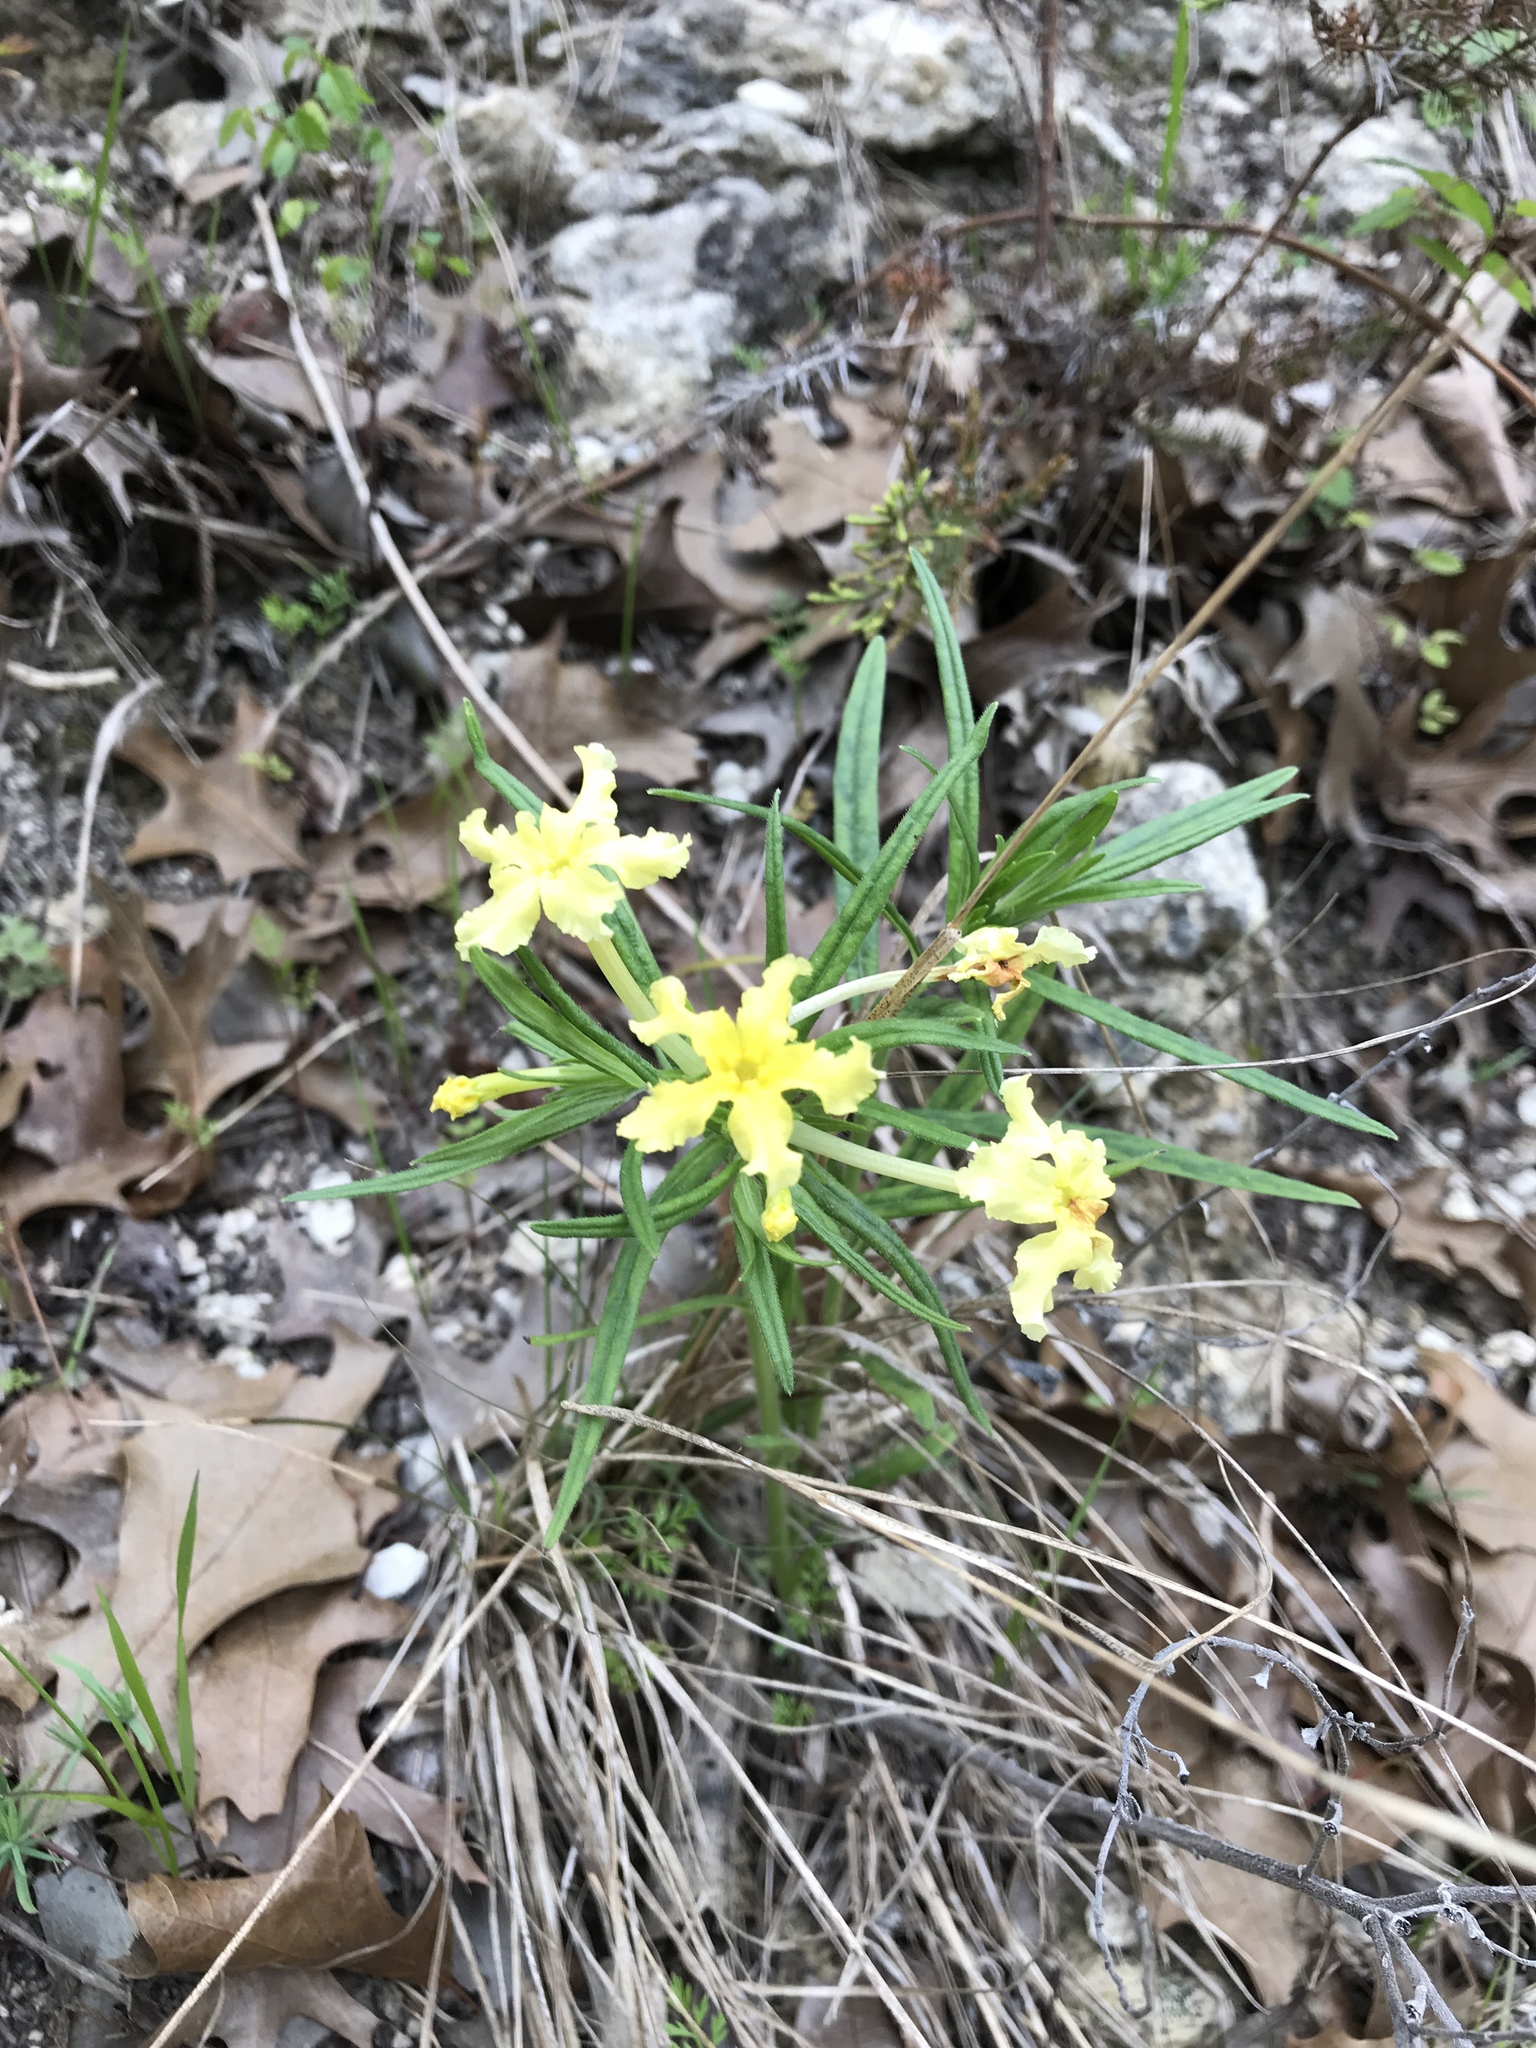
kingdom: Plantae
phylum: Tracheophyta
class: Magnoliopsida
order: Boraginales
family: Boraginaceae
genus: Lithospermum
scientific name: Lithospermum incisum
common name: Fringed gromwell
